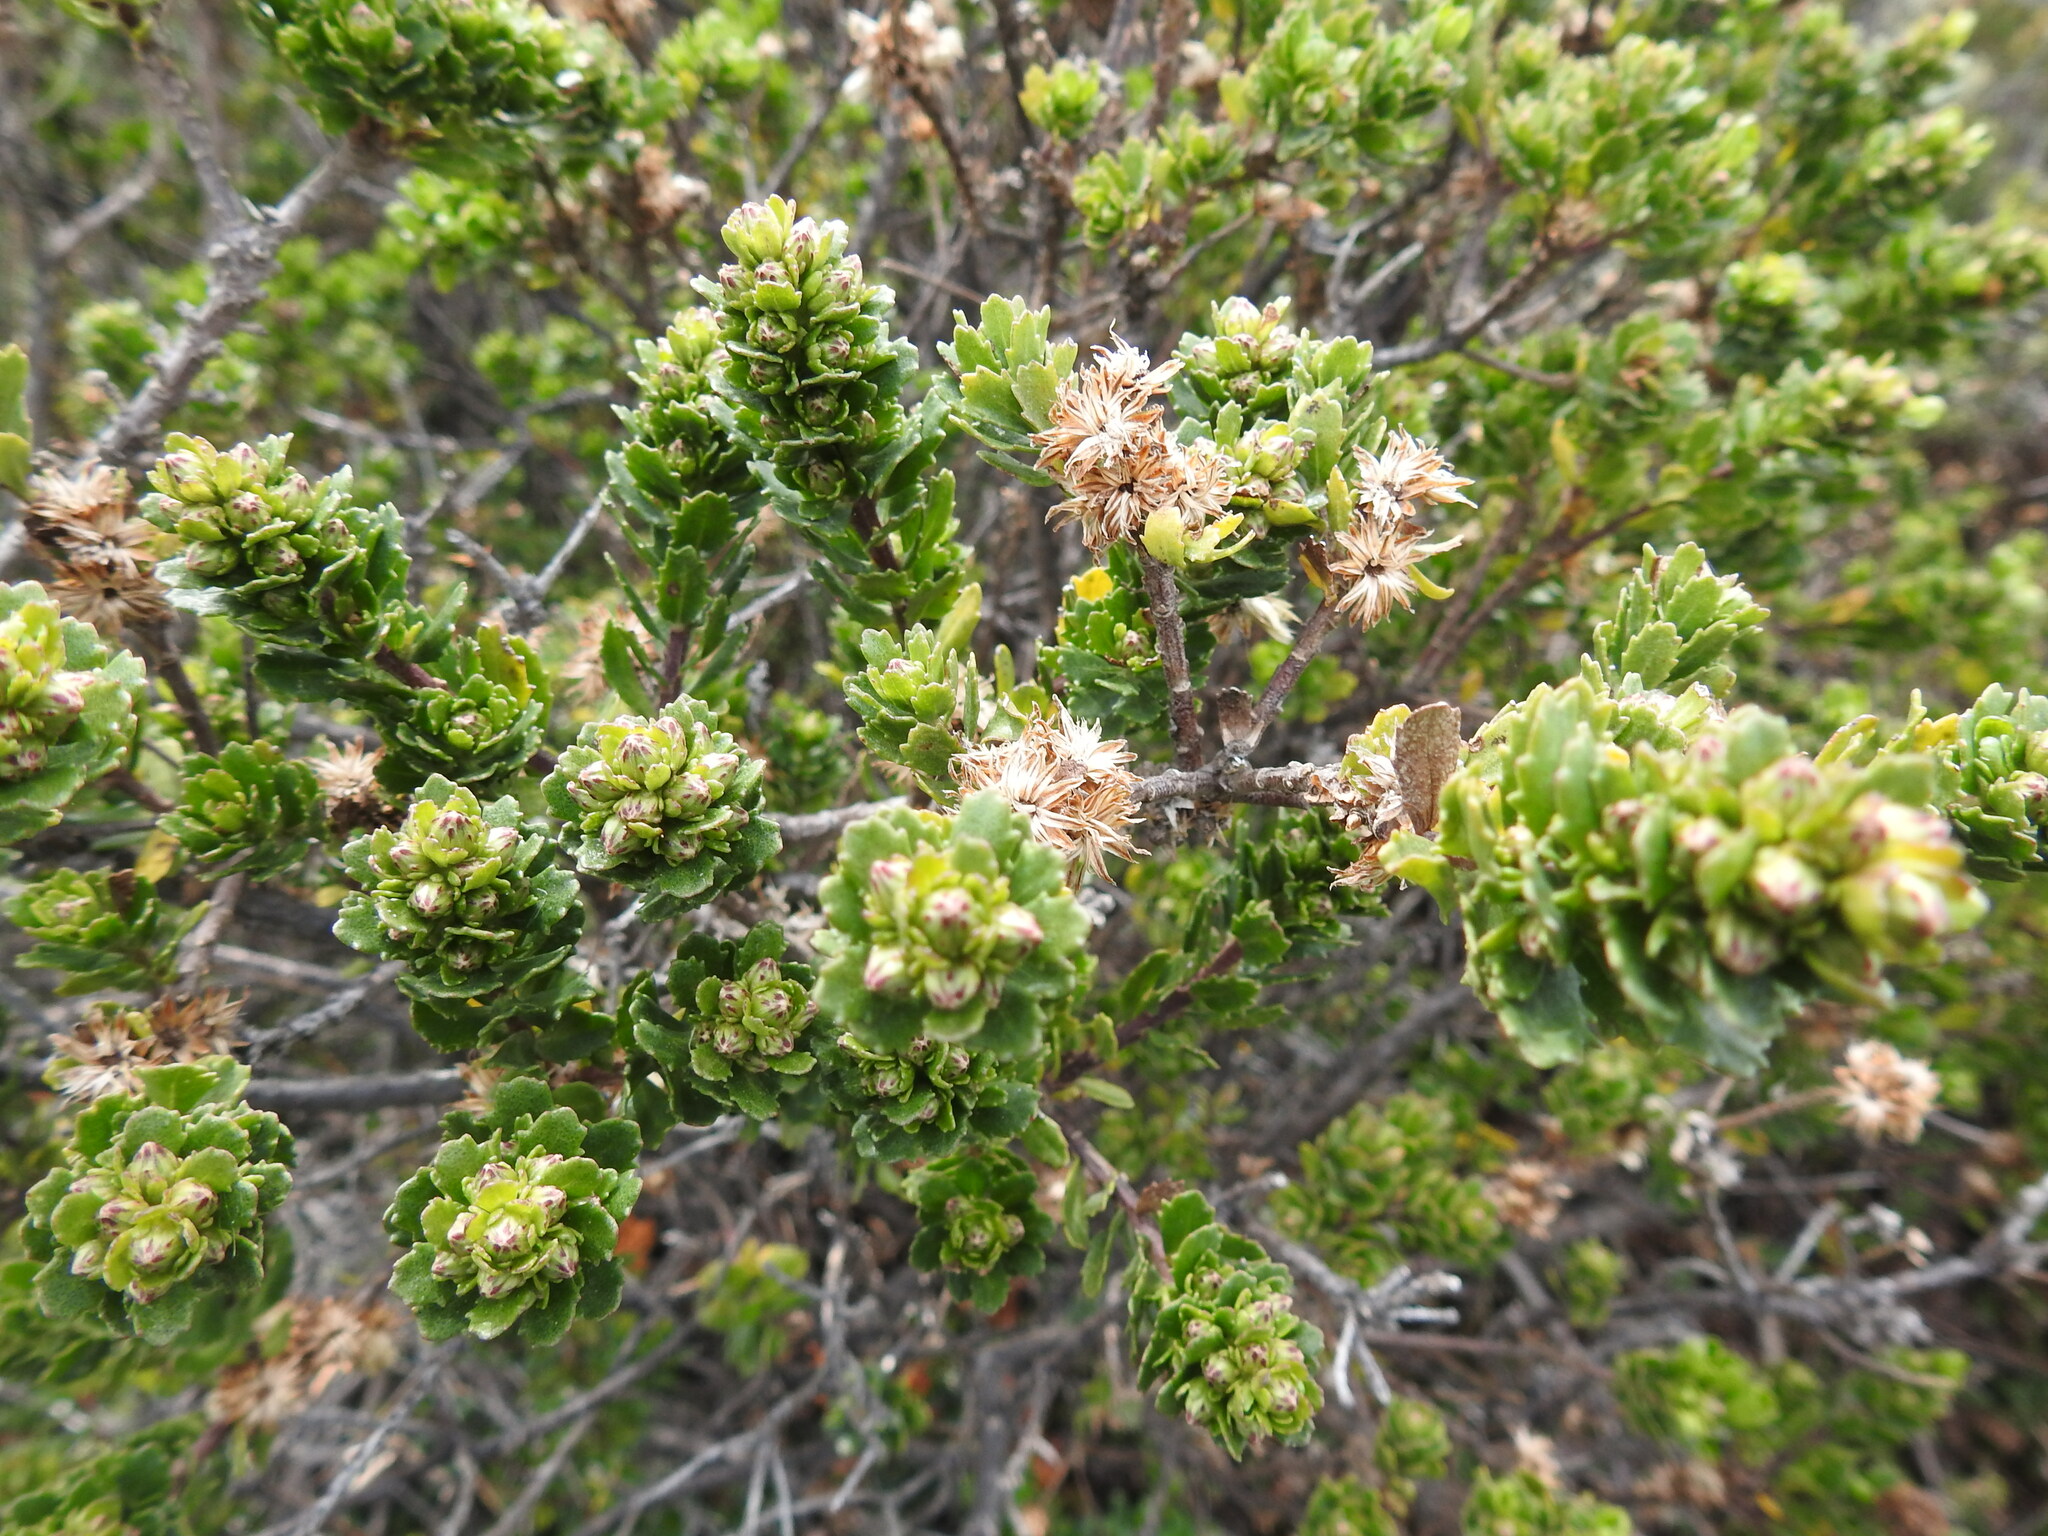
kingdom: Plantae
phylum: Tracheophyta
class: Magnoliopsida
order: Asterales
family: Asteraceae
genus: Baccharis
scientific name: Baccharis patagonica
